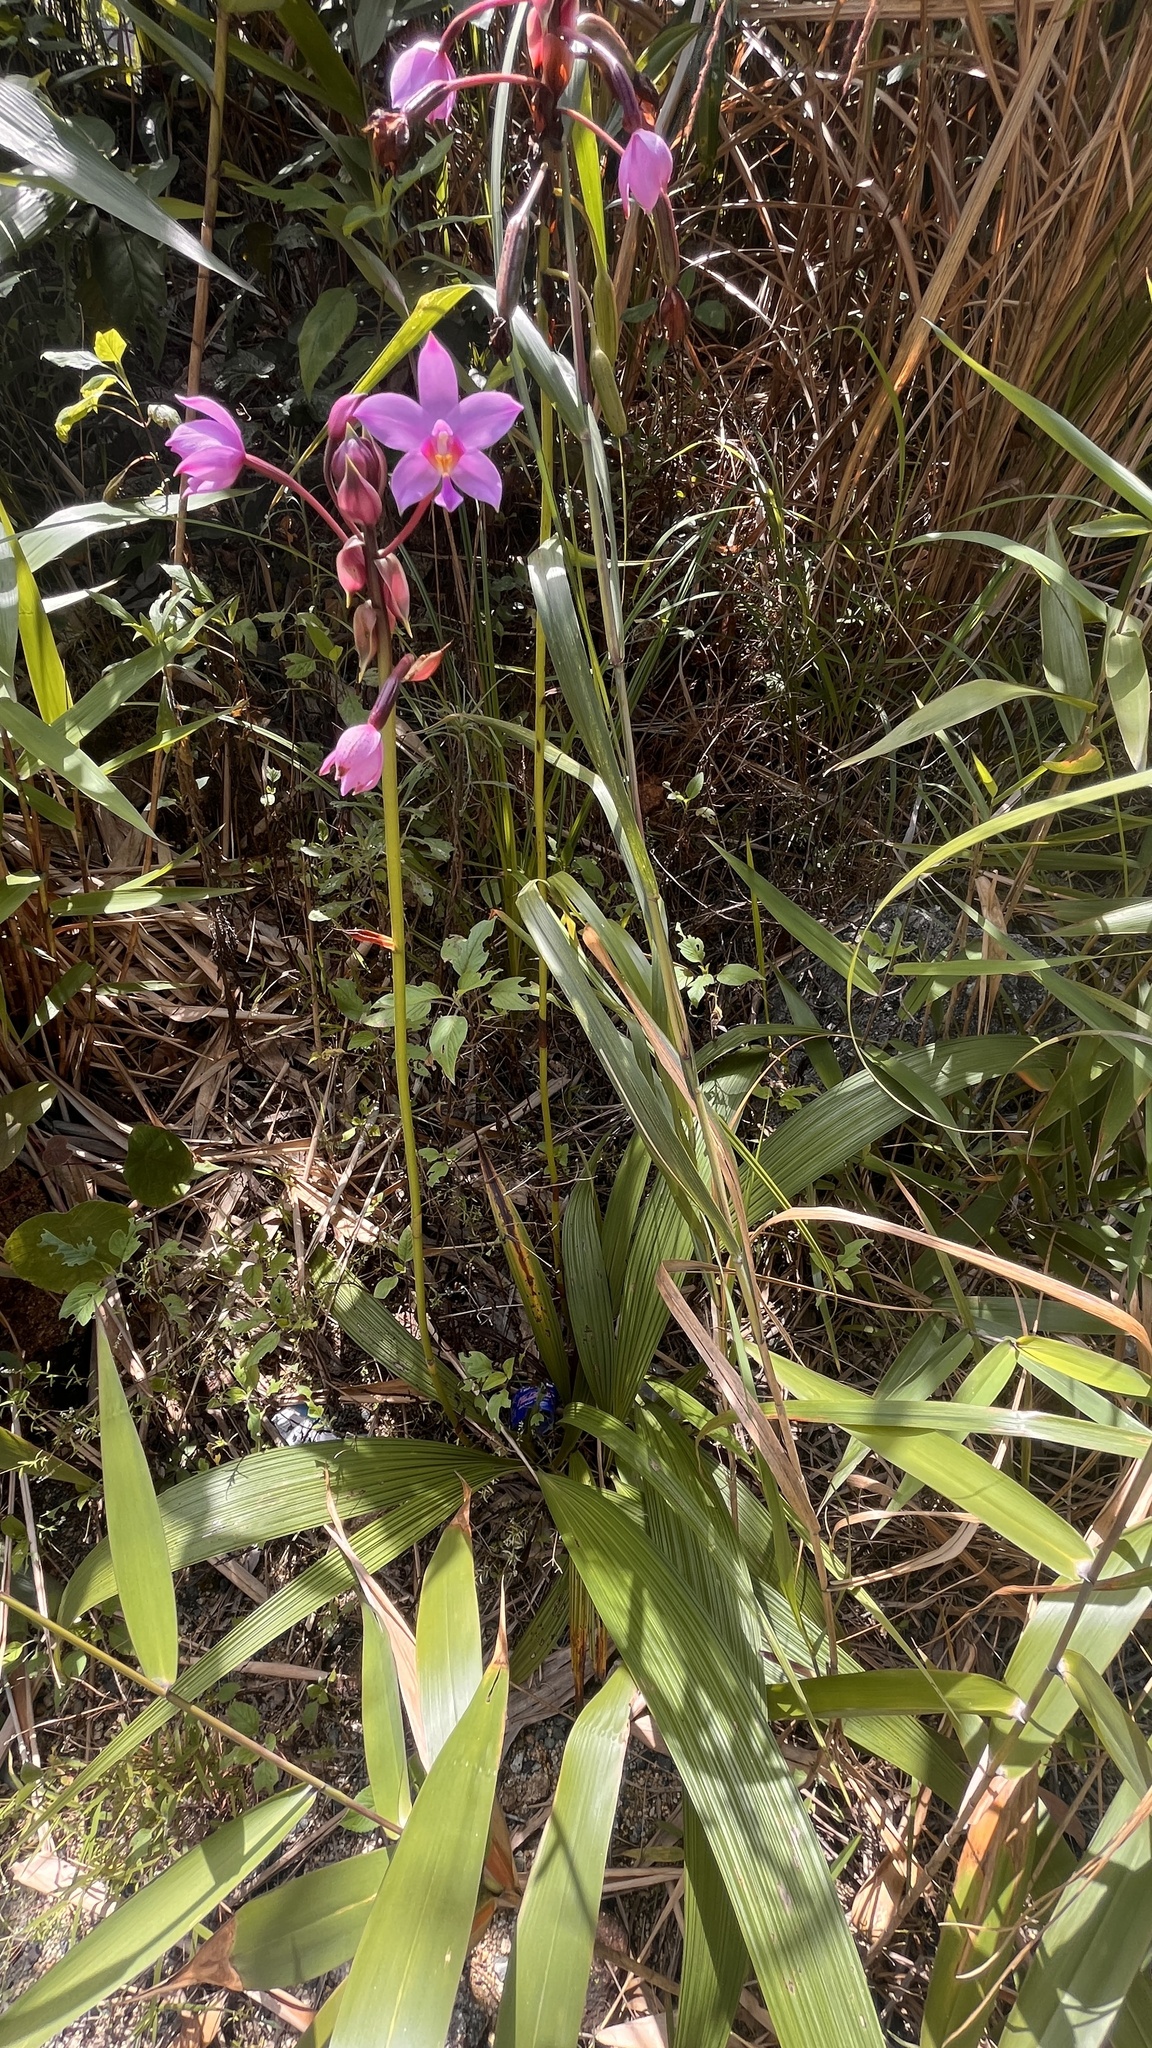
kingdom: Plantae
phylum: Tracheophyta
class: Liliopsida
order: Asparagales
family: Orchidaceae
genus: Spathoglottis
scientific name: Spathoglottis plicata
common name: Philippine ground orchid
